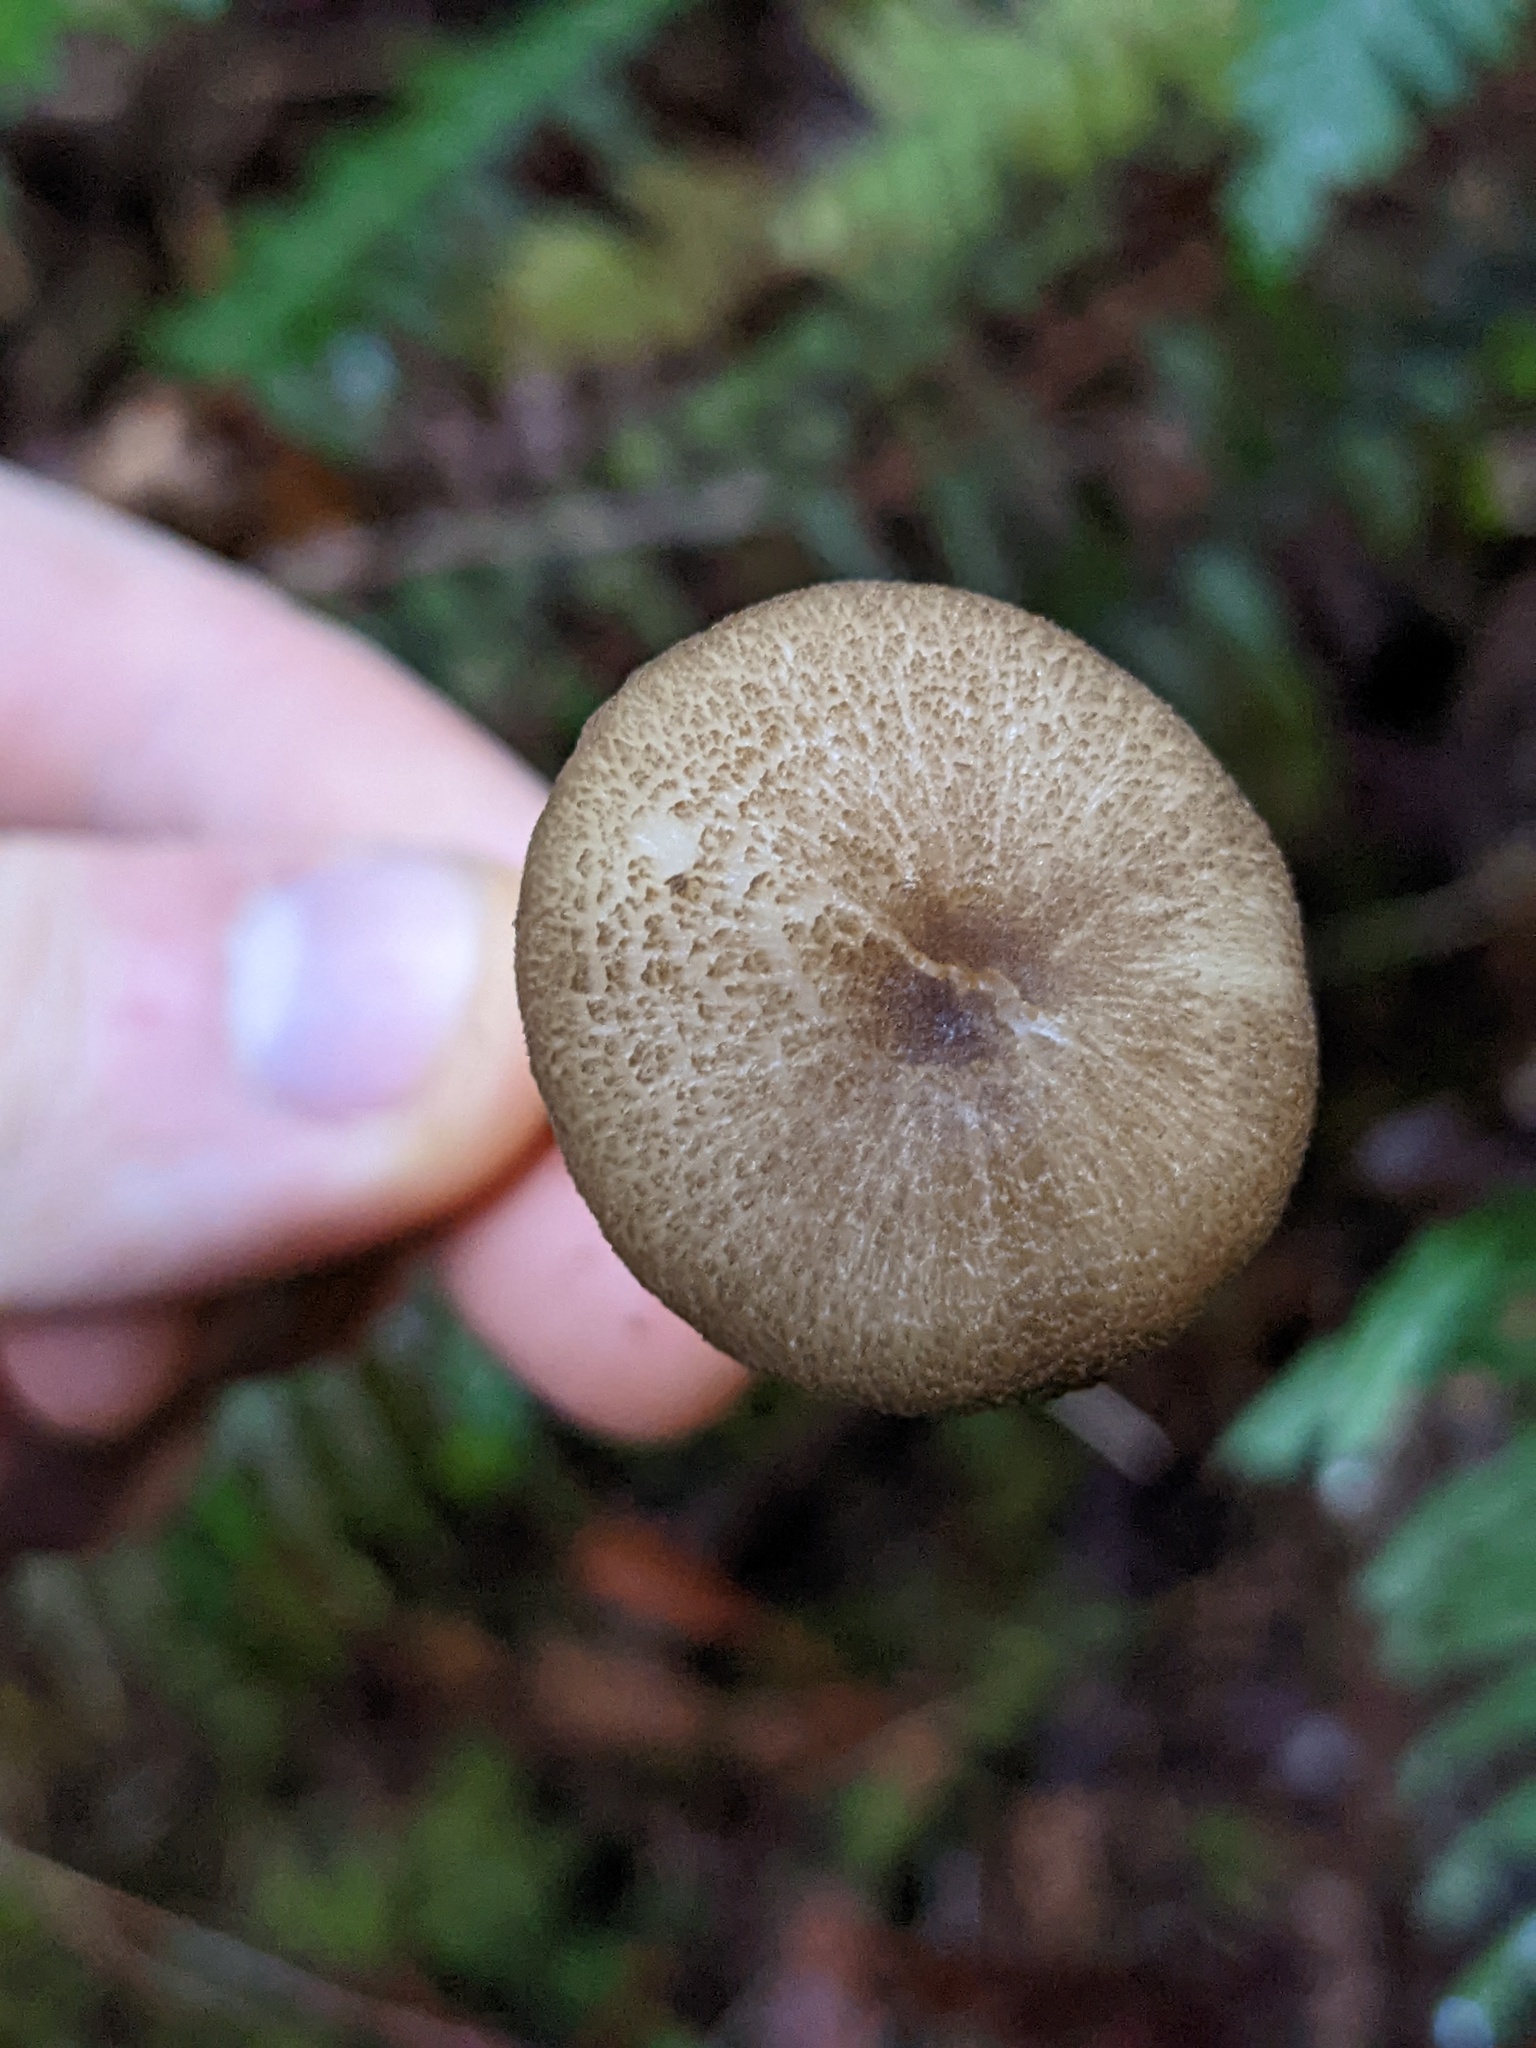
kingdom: Fungi
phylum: Basidiomycota
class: Agaricomycetes
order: Agaricales
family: Entolomataceae
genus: Entoloma
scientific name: Entoloma exalbidum
